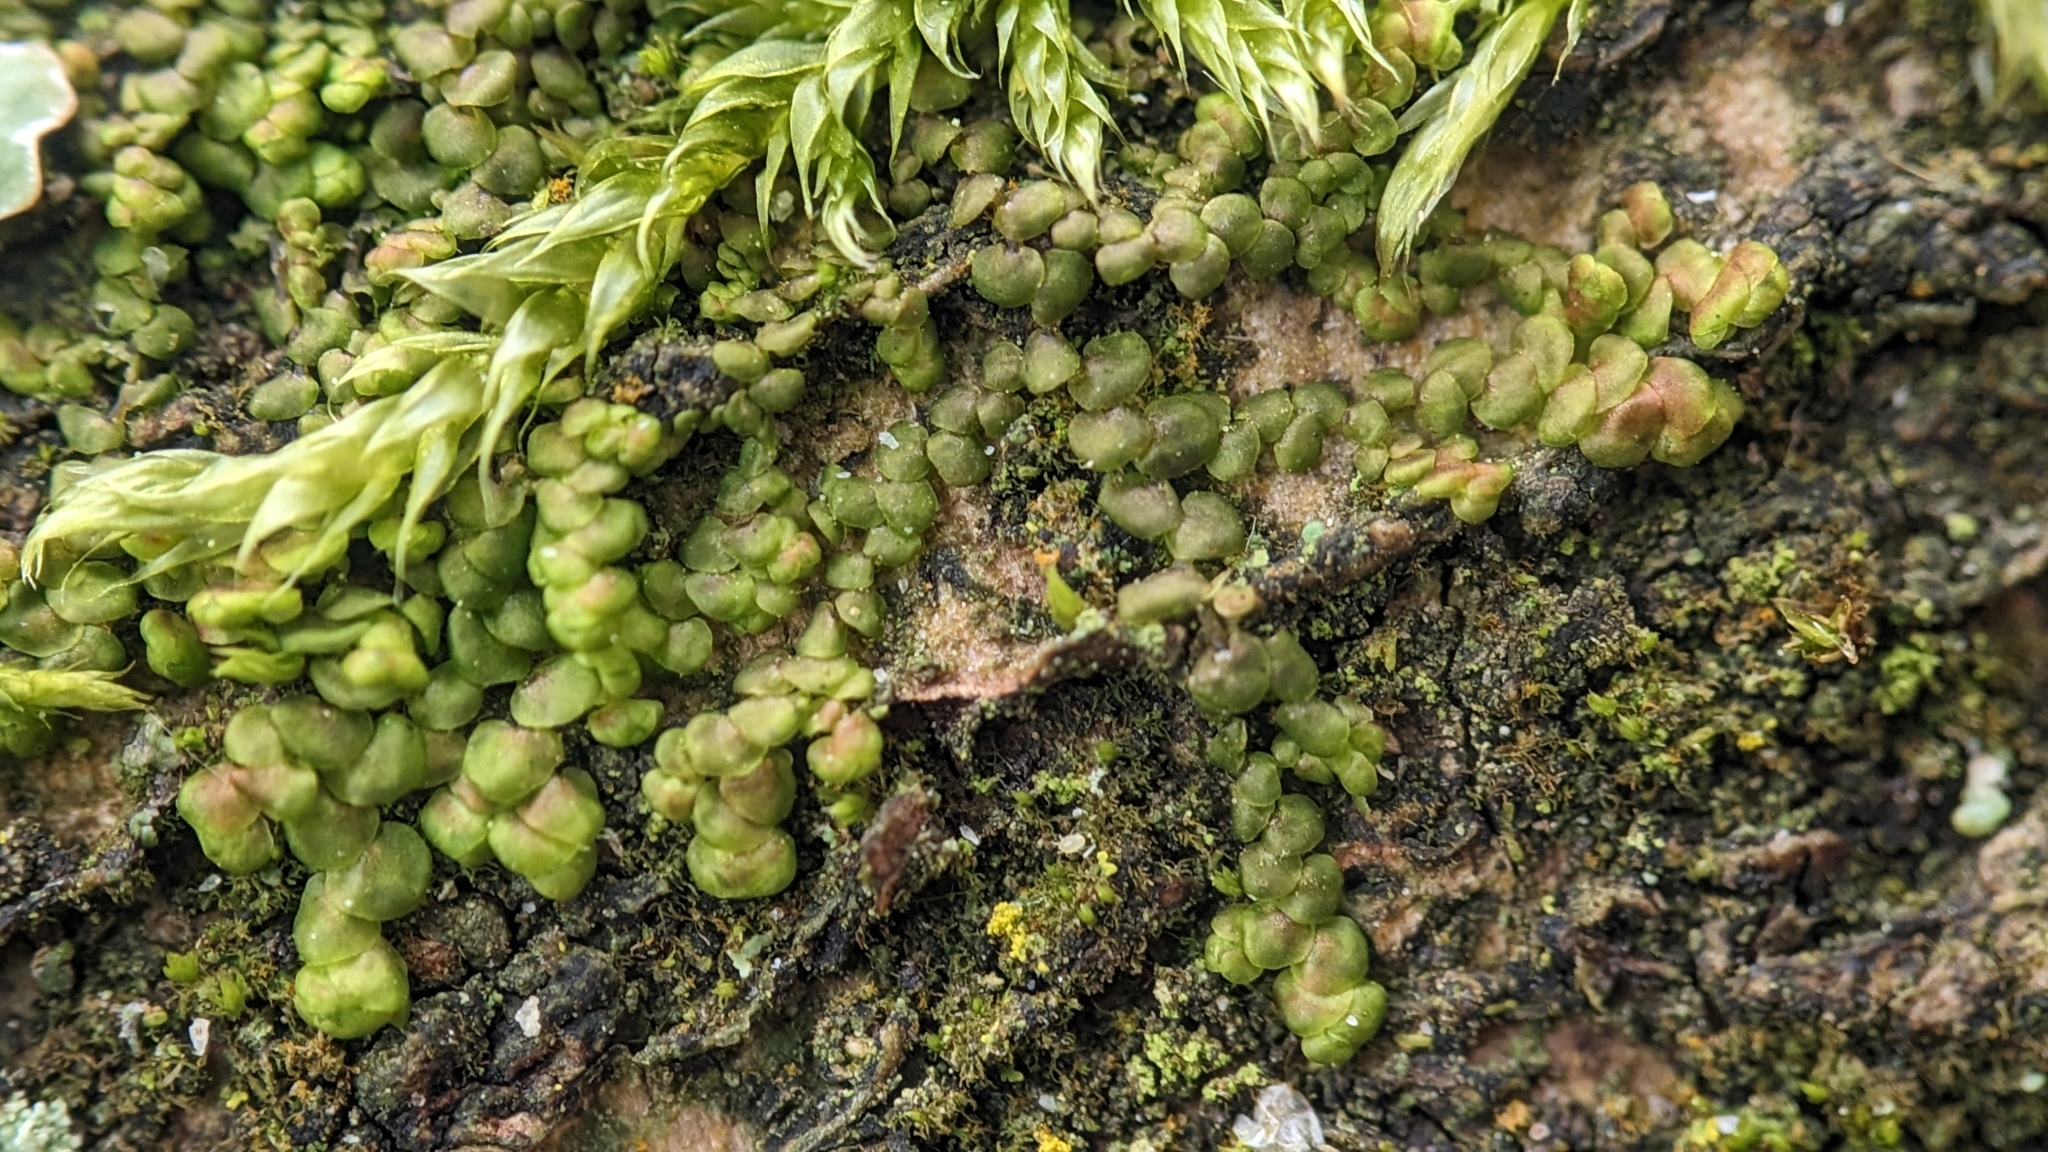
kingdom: Plantae
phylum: Marchantiophyta
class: Jungermanniopsida
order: Porellales
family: Frullaniaceae
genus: Frullania
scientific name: Frullania dilatata
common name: Dilated scalewort
